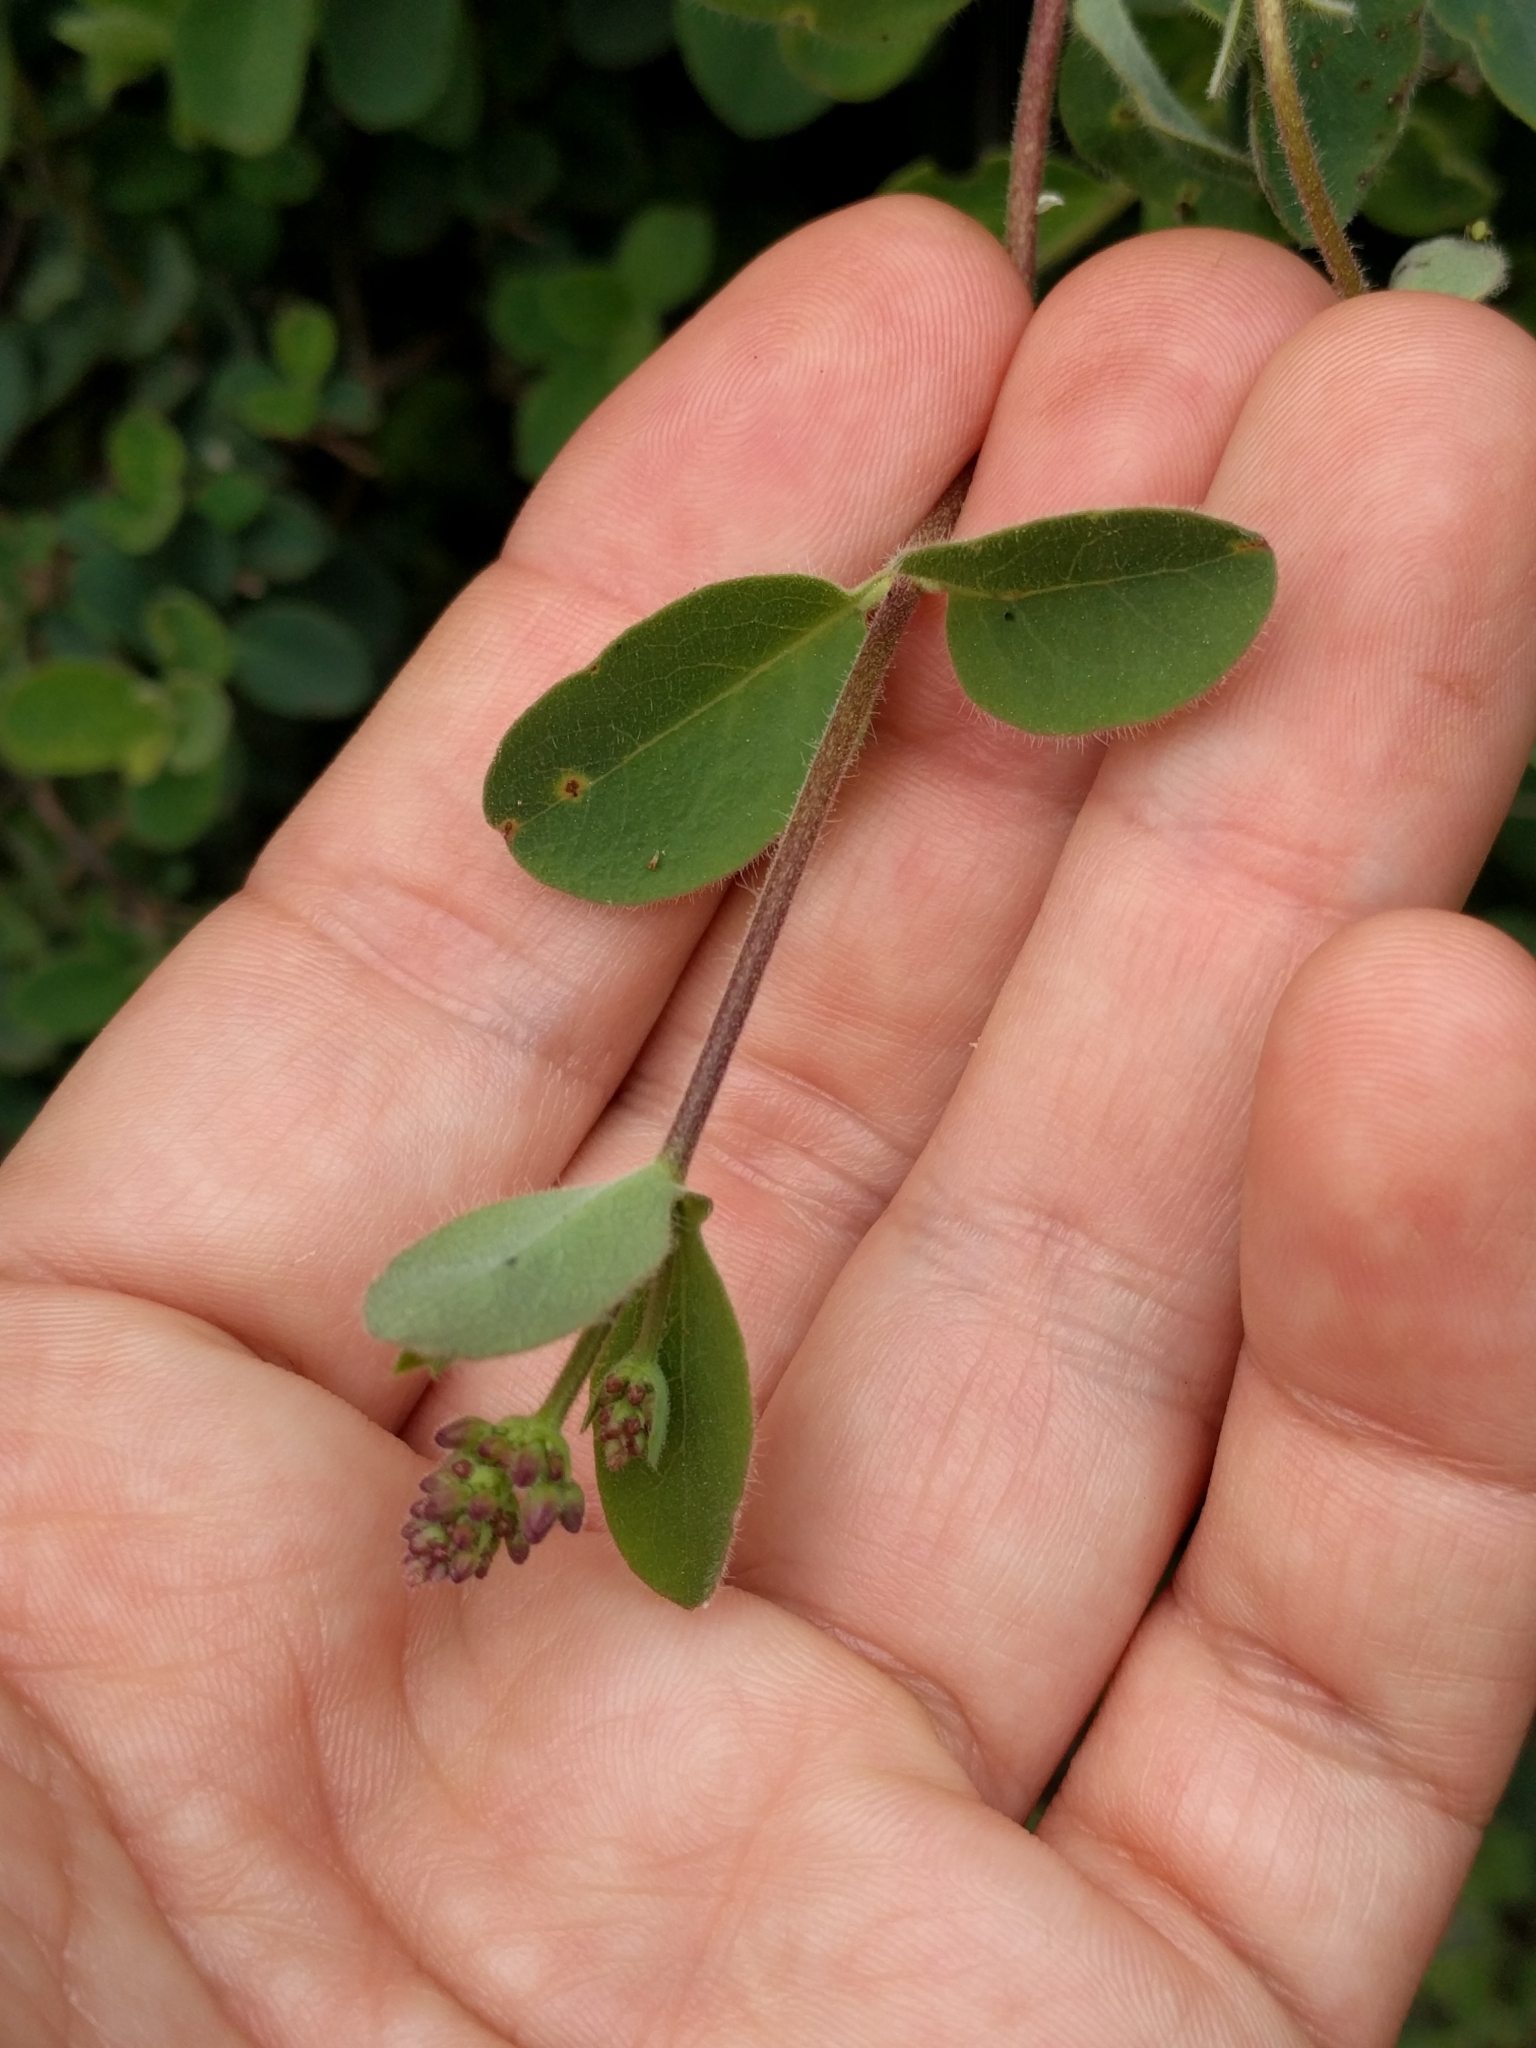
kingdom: Plantae
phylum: Tracheophyta
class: Magnoliopsida
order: Dipsacales
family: Caprifoliaceae
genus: Lonicera
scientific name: Lonicera subspicata
